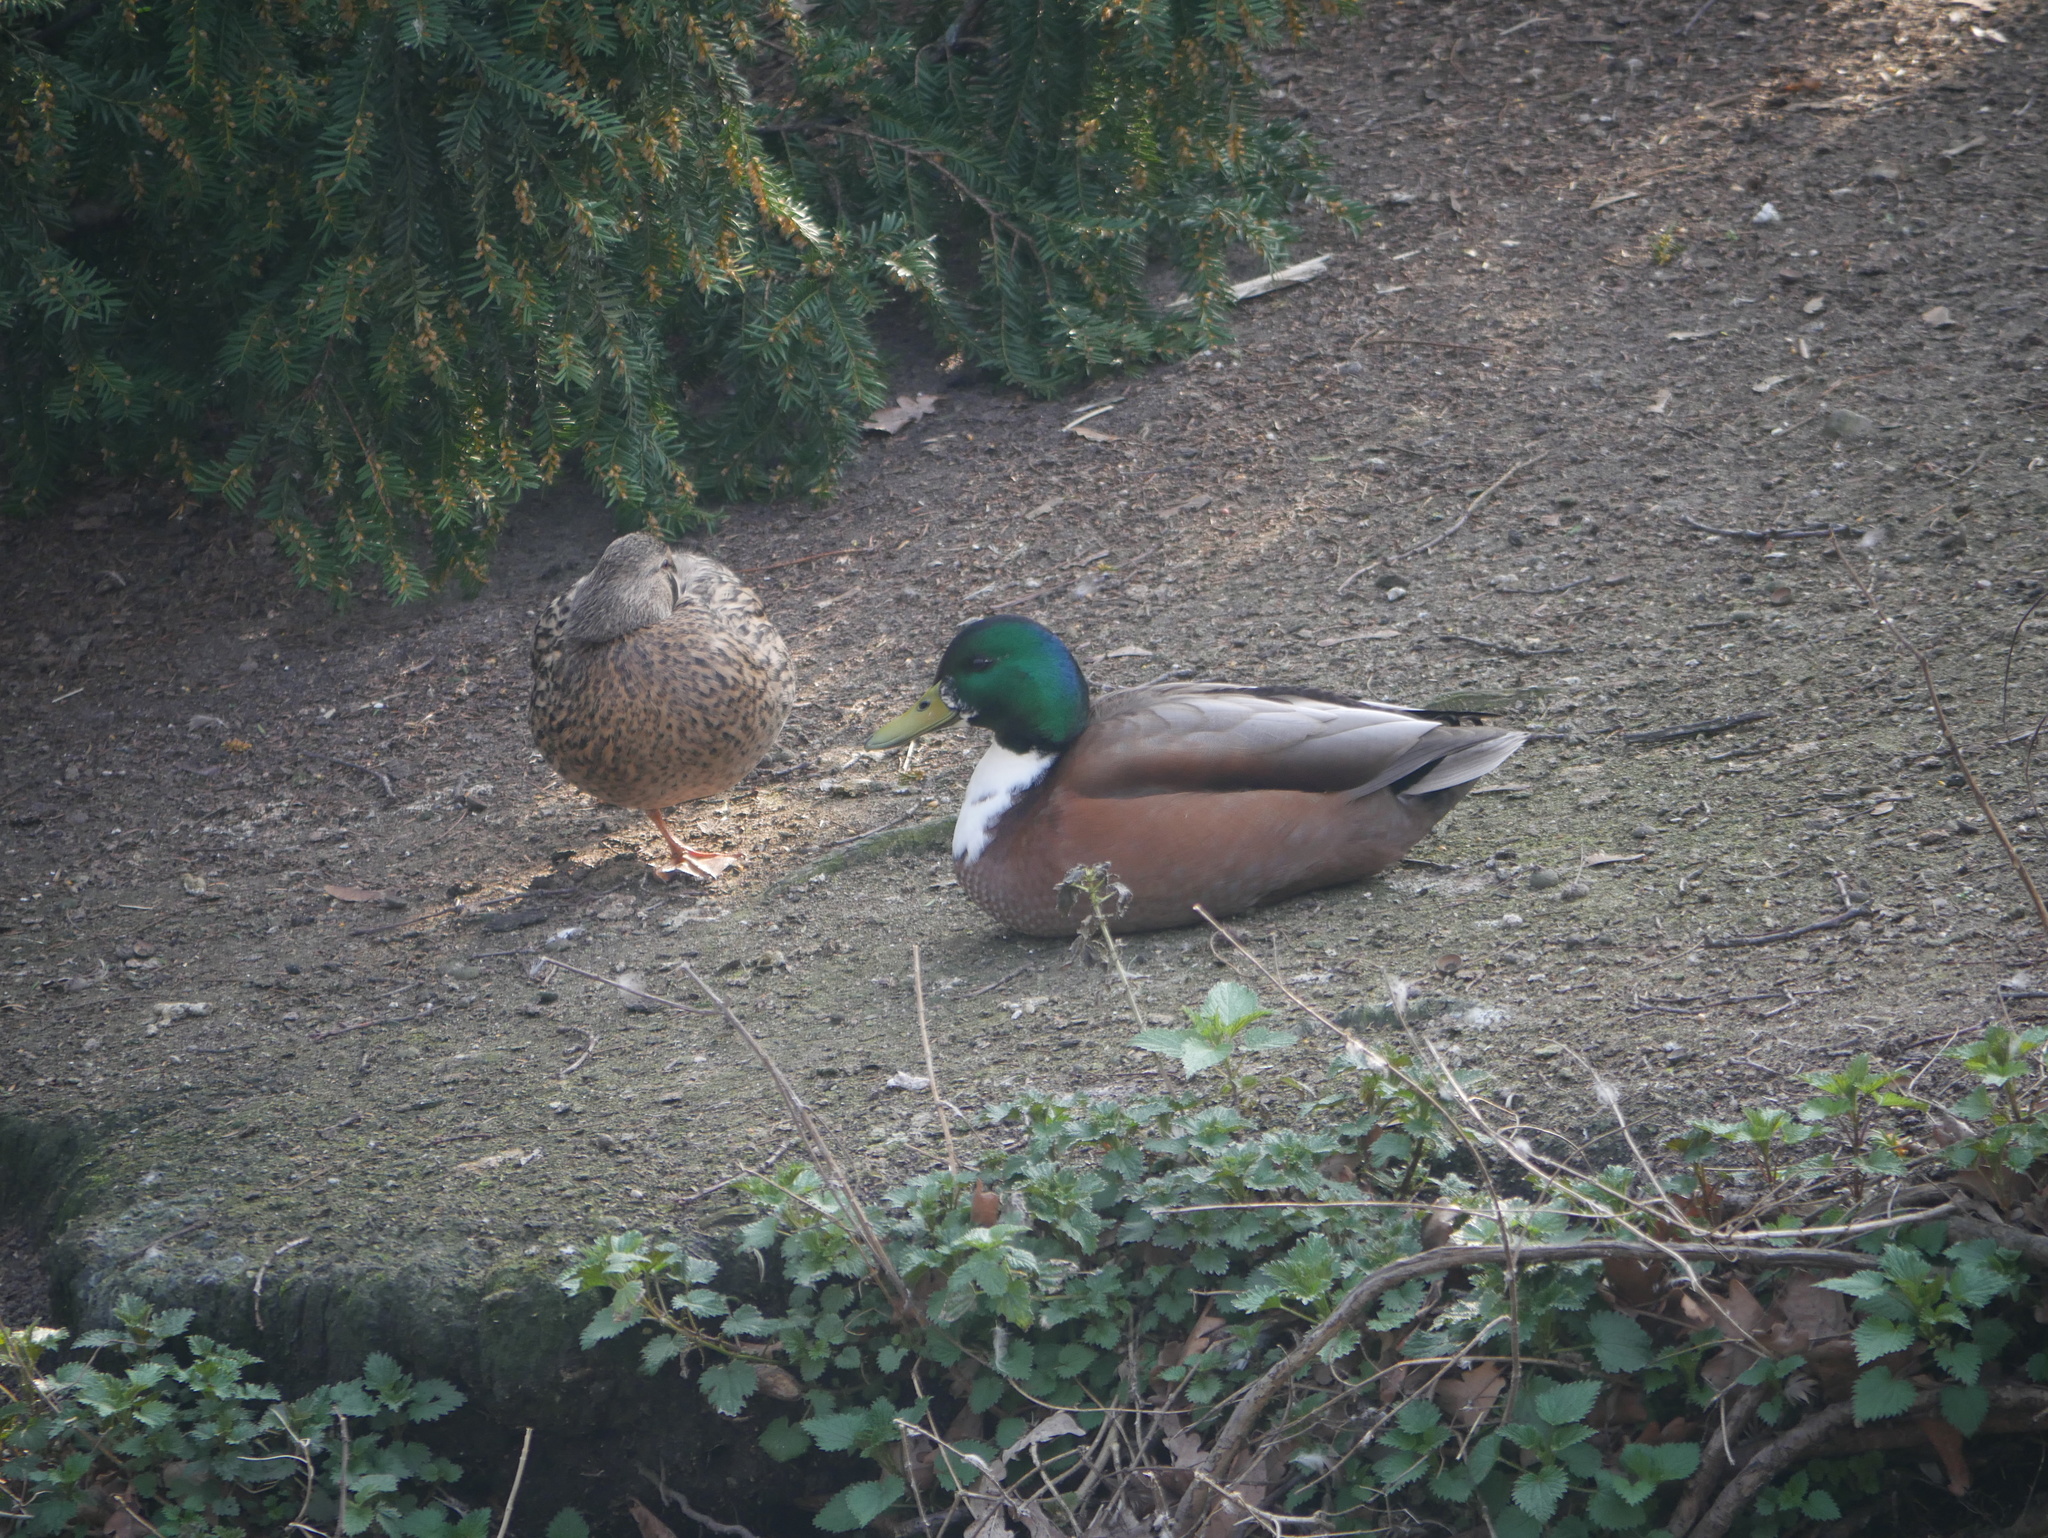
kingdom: Animalia
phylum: Chordata
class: Aves
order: Anseriformes
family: Anatidae
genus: Anas
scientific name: Anas platyrhynchos
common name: Mallard
